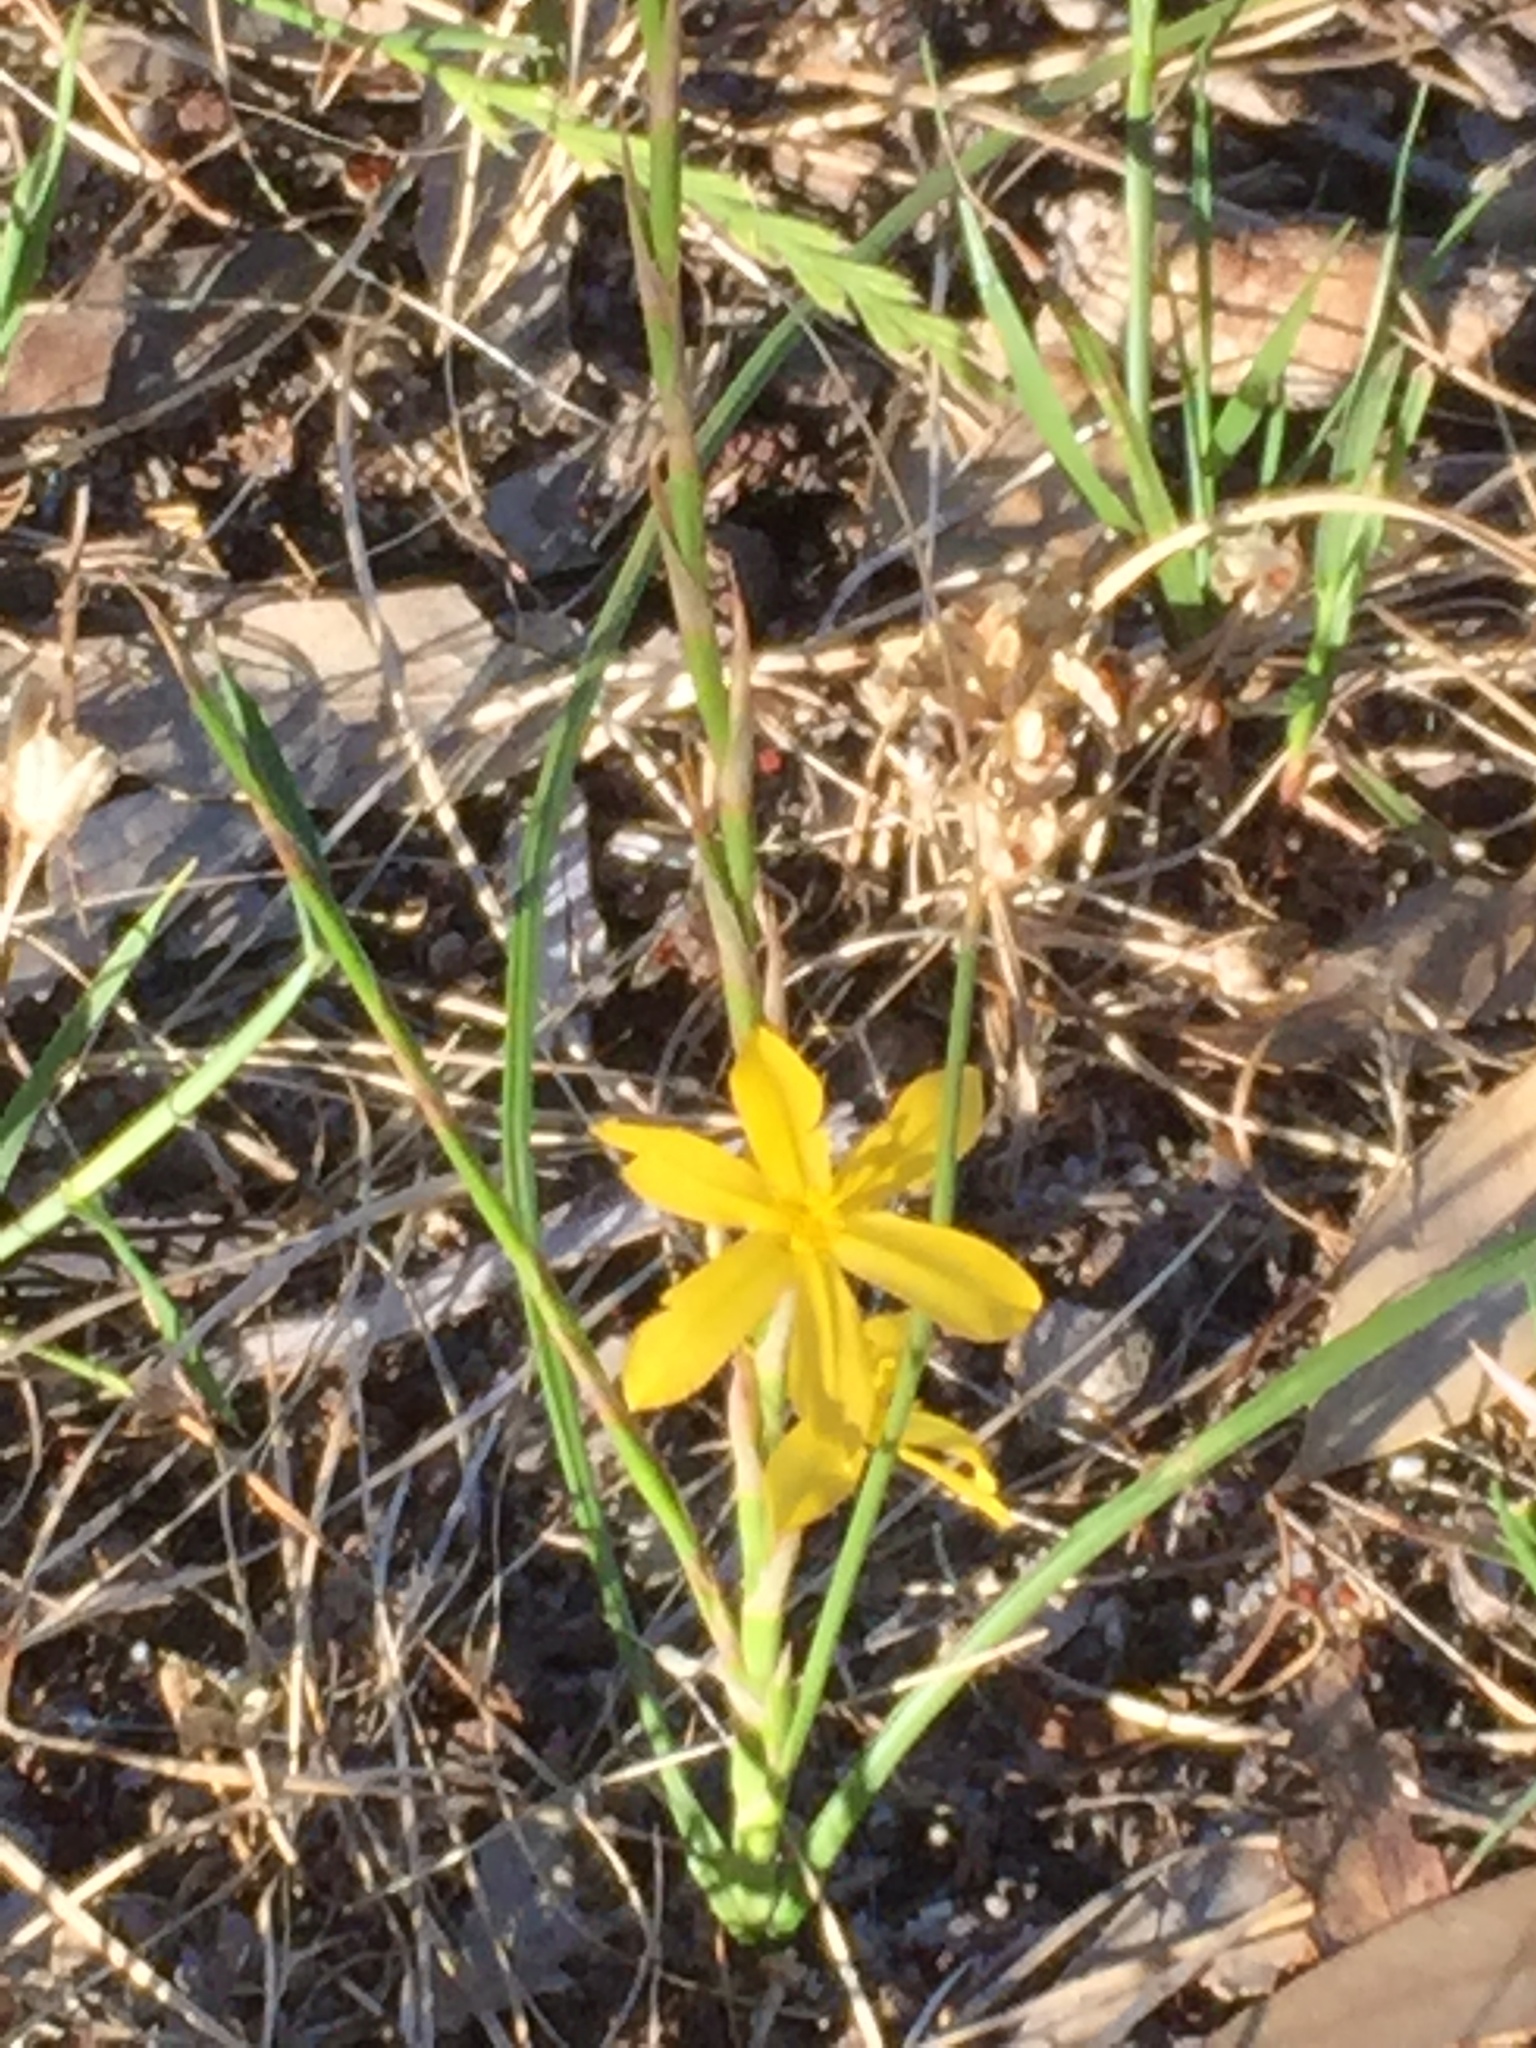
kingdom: Plantae
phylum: Tracheophyta
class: Liliopsida
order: Asparagales
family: Iridaceae
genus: Moraea
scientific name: Moraea lewisiae
